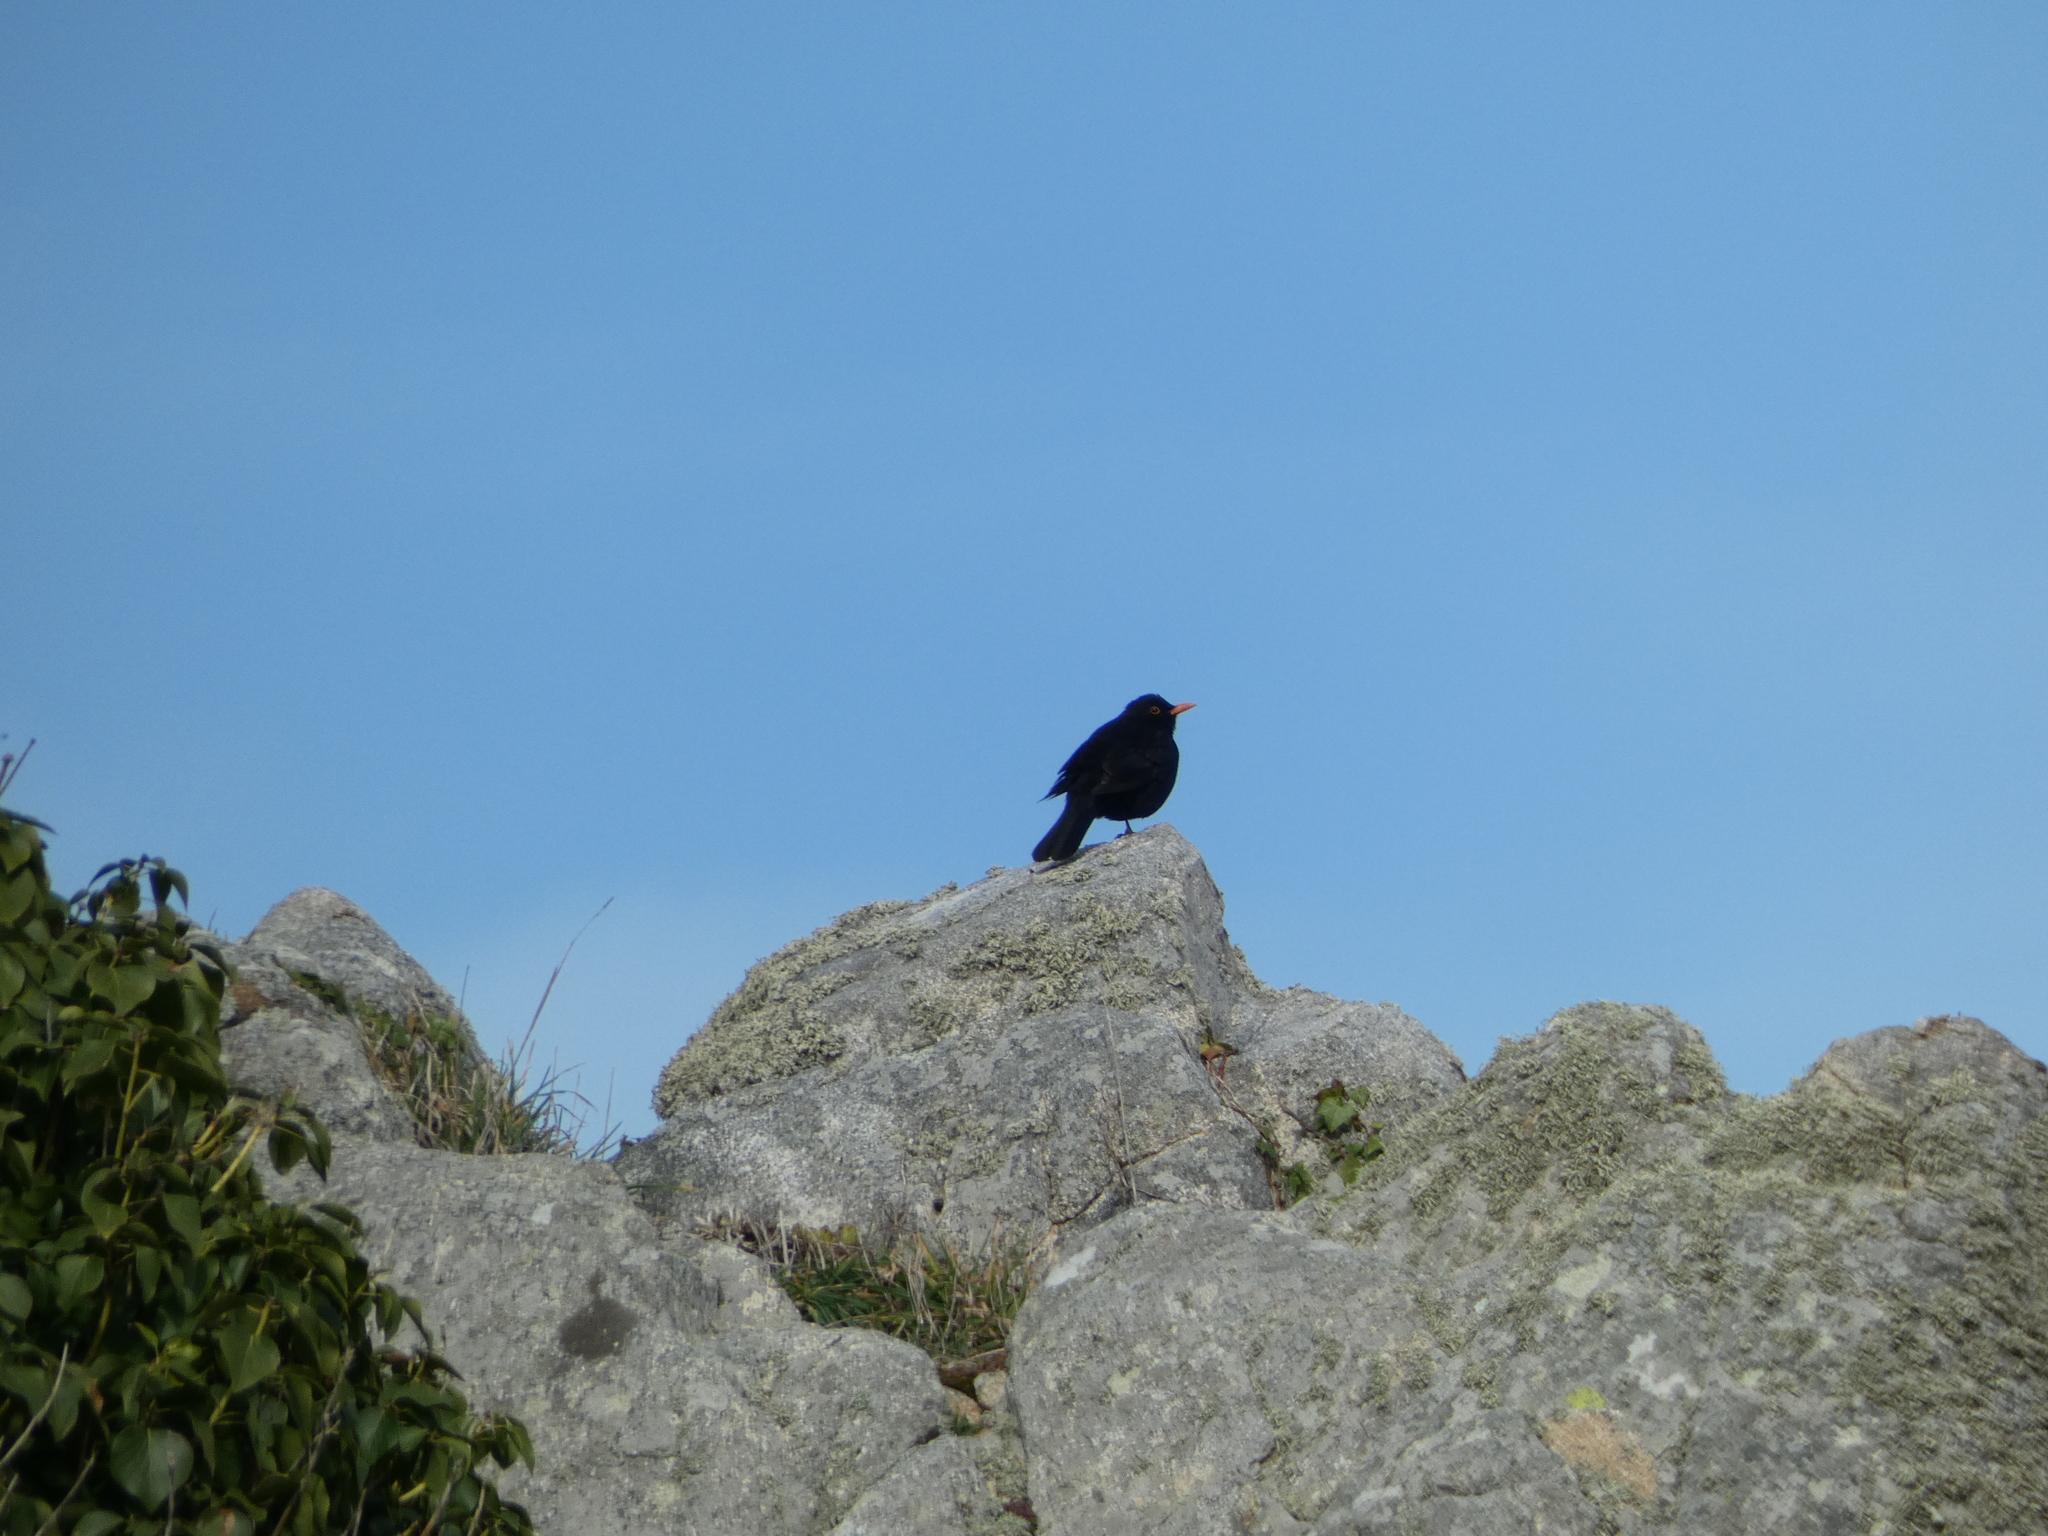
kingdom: Animalia
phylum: Chordata
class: Aves
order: Passeriformes
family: Turdidae
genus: Turdus
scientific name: Turdus merula
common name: Common blackbird
